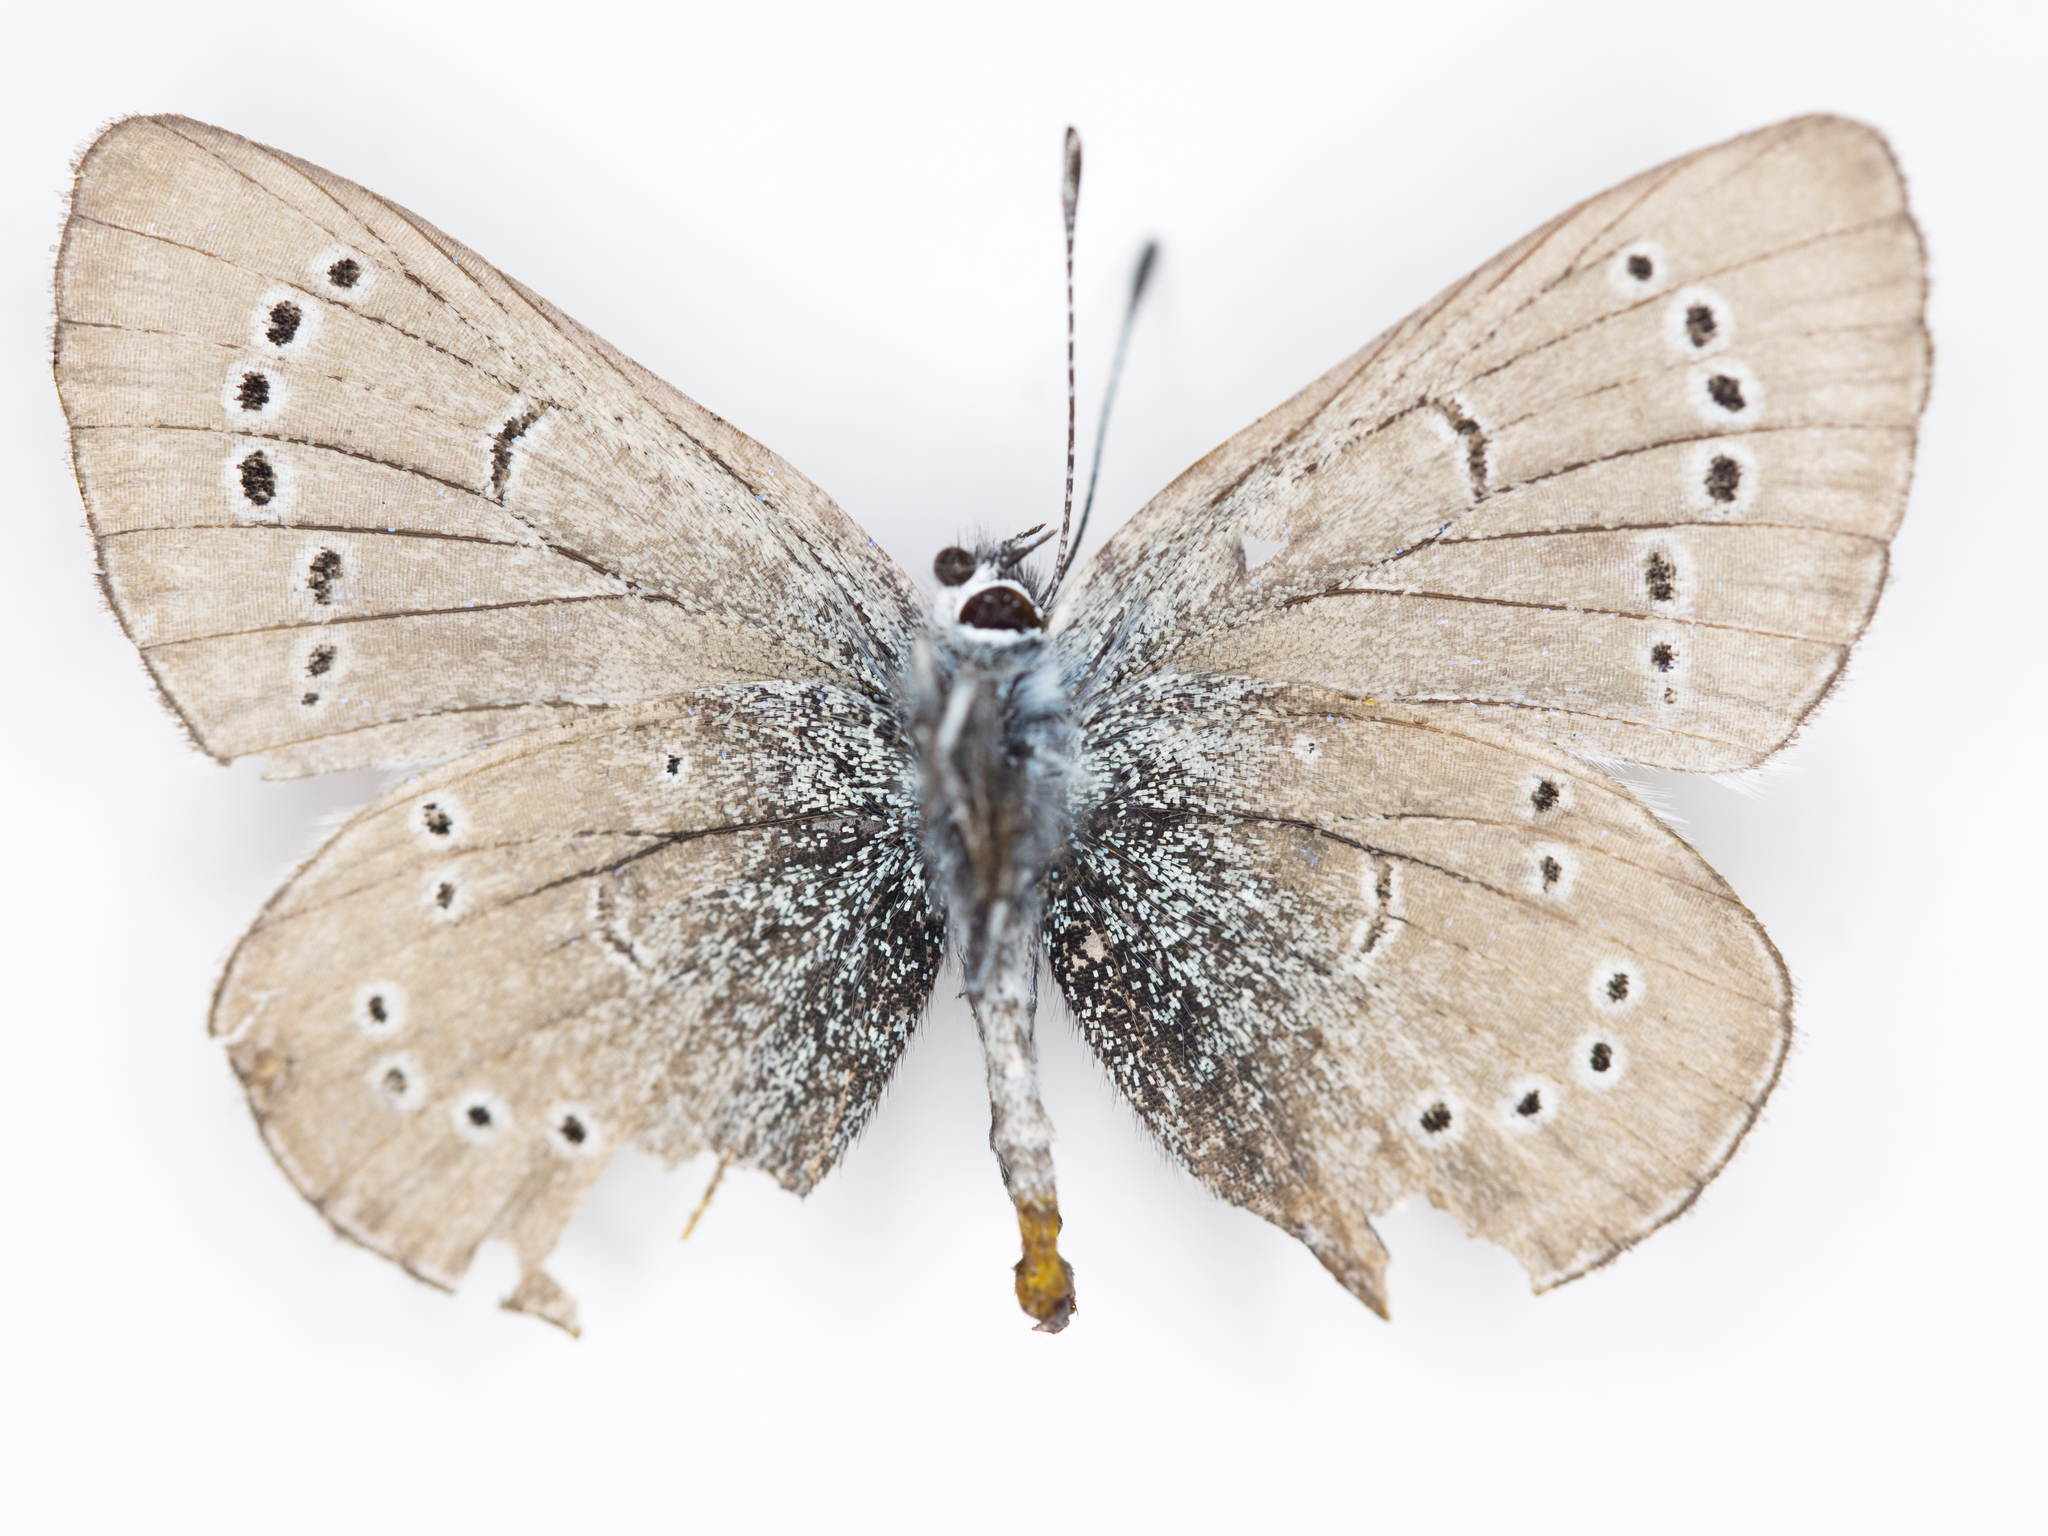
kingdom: Animalia
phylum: Arthropoda
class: Insecta
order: Lepidoptera
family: Lycaenidae
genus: Glaucopsyche
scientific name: Glaucopsyche lygdamus
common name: Silvery blue
